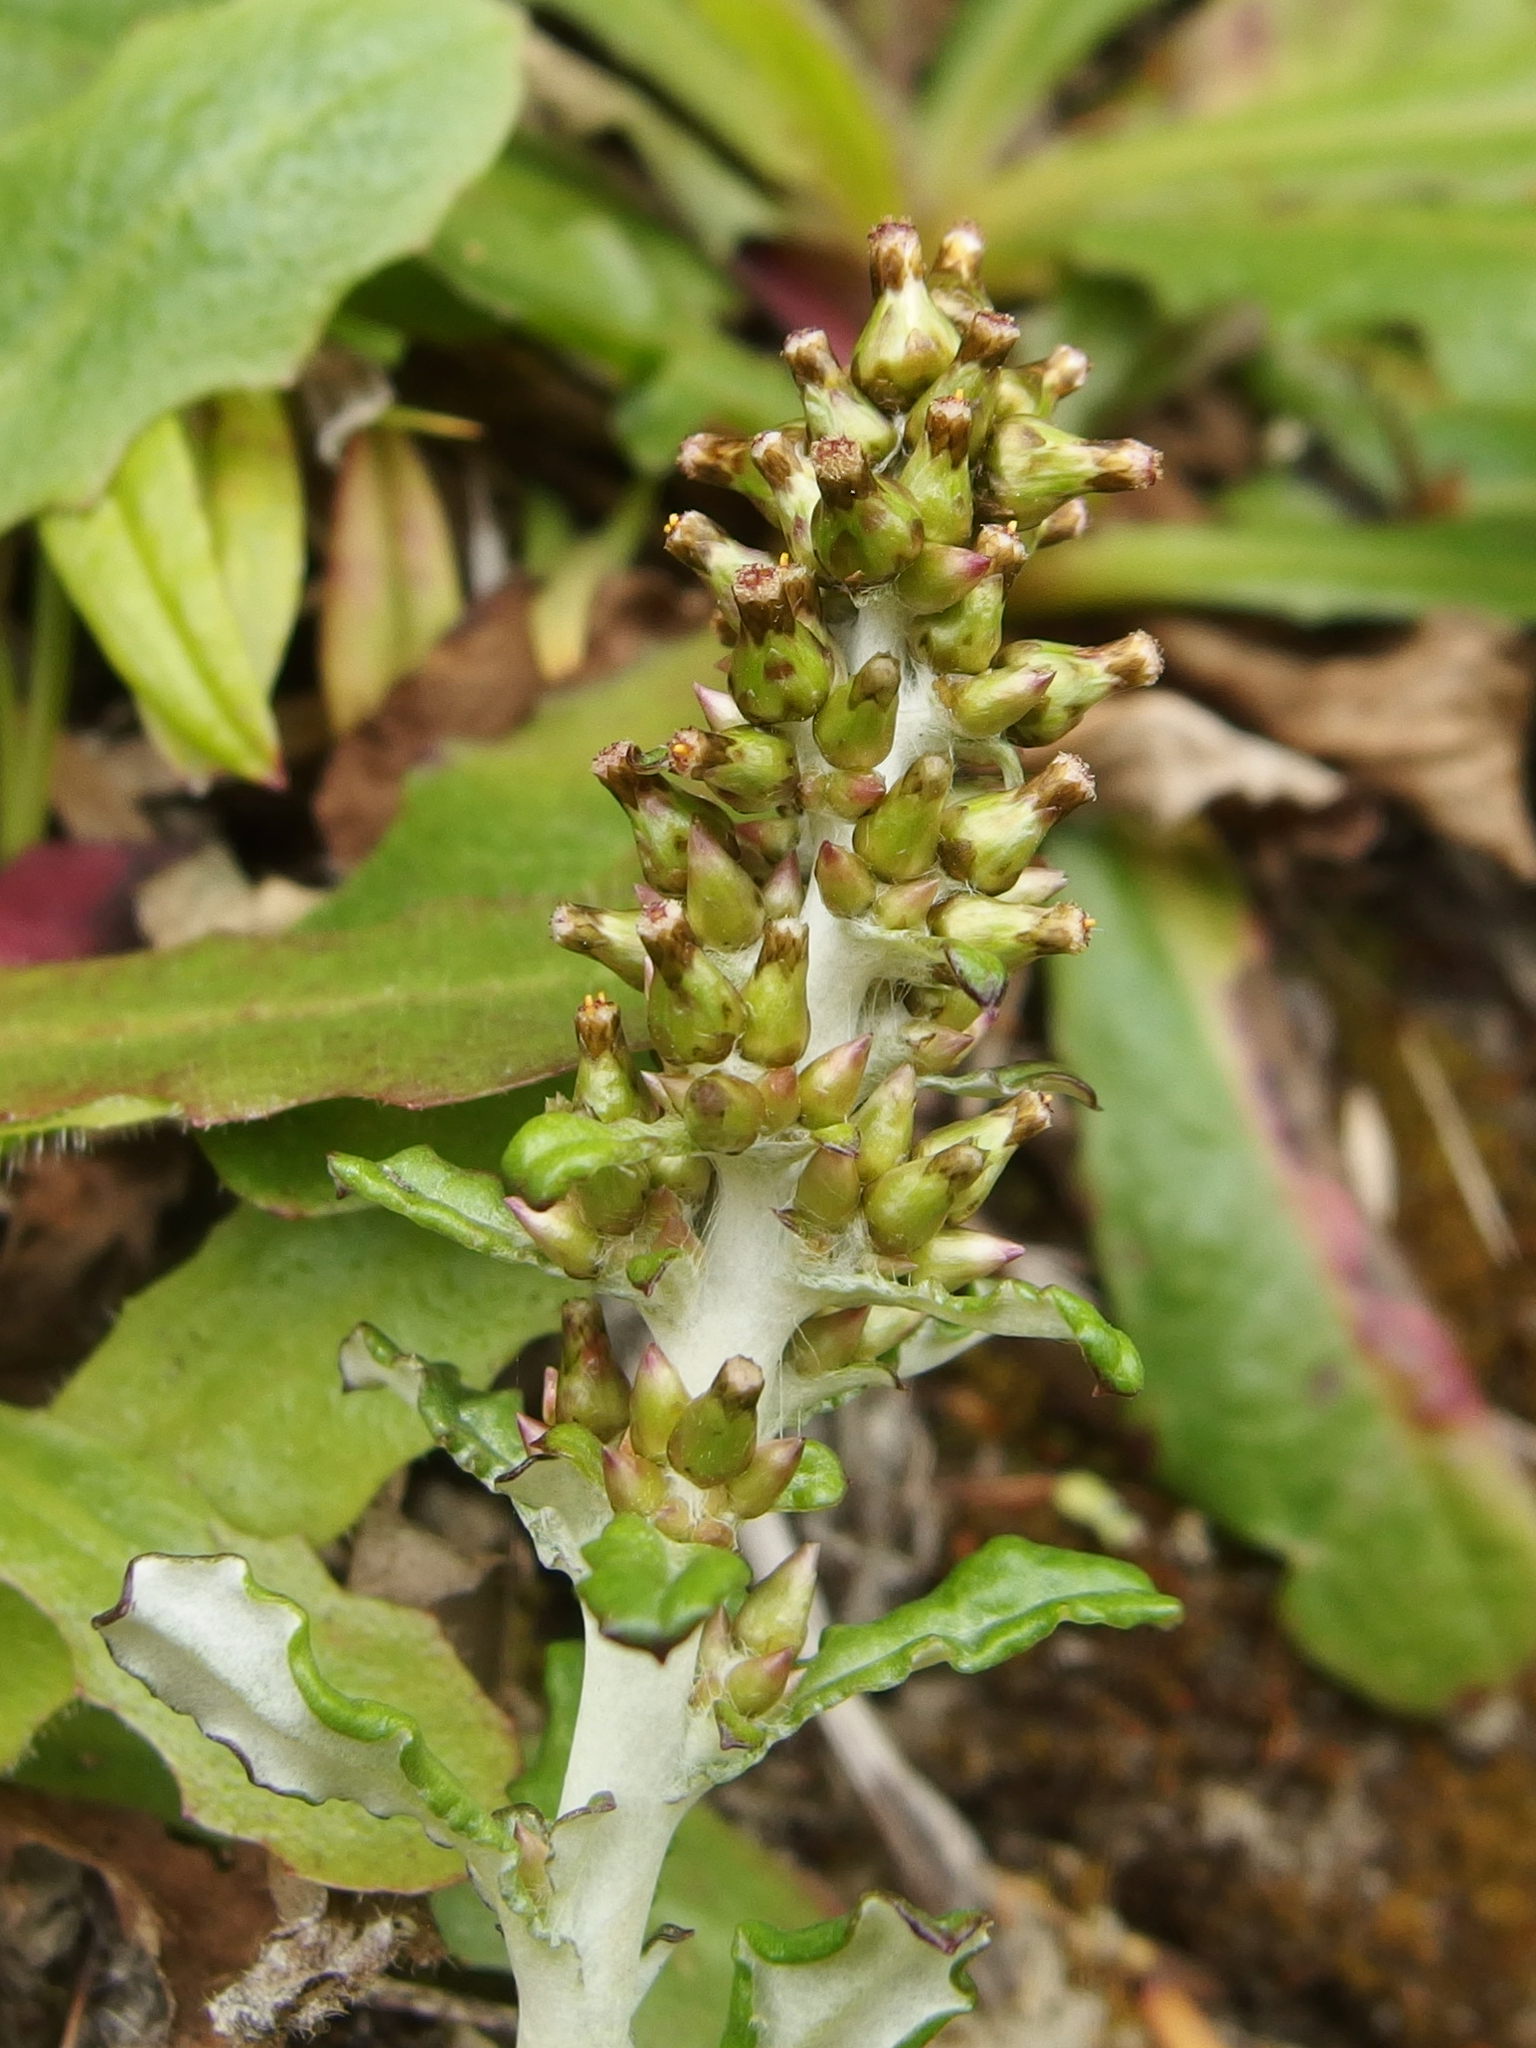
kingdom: Plantae
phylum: Tracheophyta
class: Magnoliopsida
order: Asterales
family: Asteraceae
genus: Gamochaeta
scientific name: Gamochaeta americana
